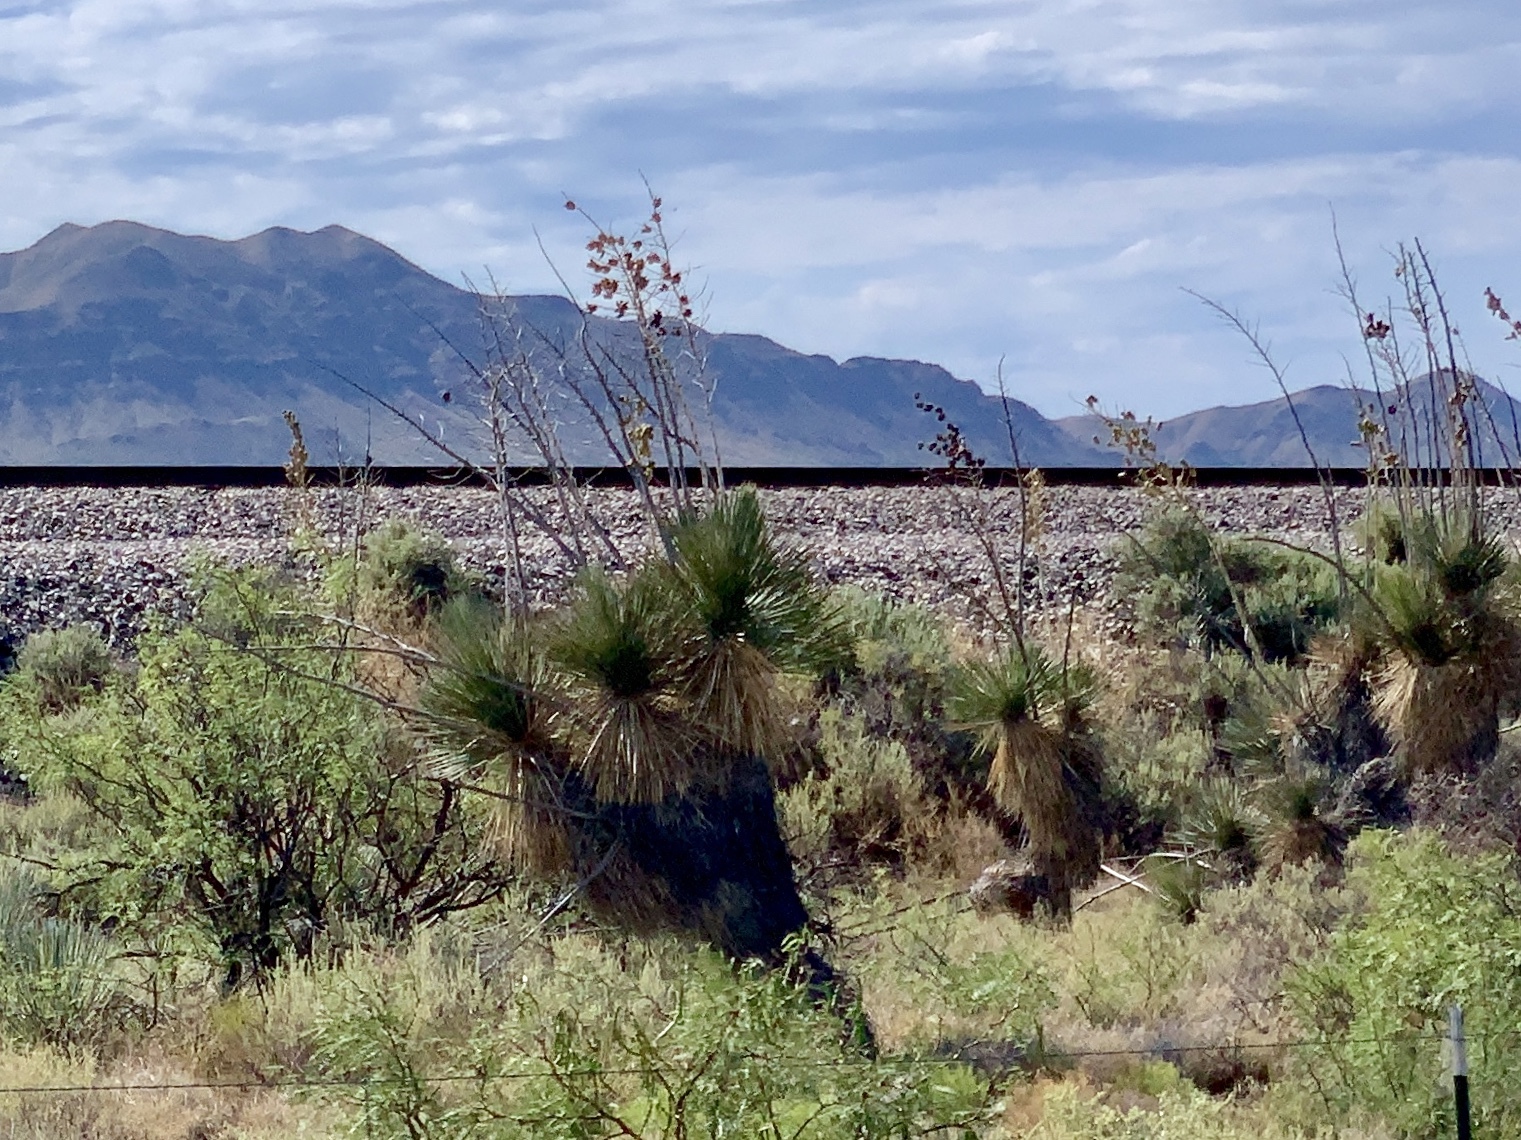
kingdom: Plantae
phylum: Tracheophyta
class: Liliopsida
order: Asparagales
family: Asparagaceae
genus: Yucca
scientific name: Yucca elata
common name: Palmella
